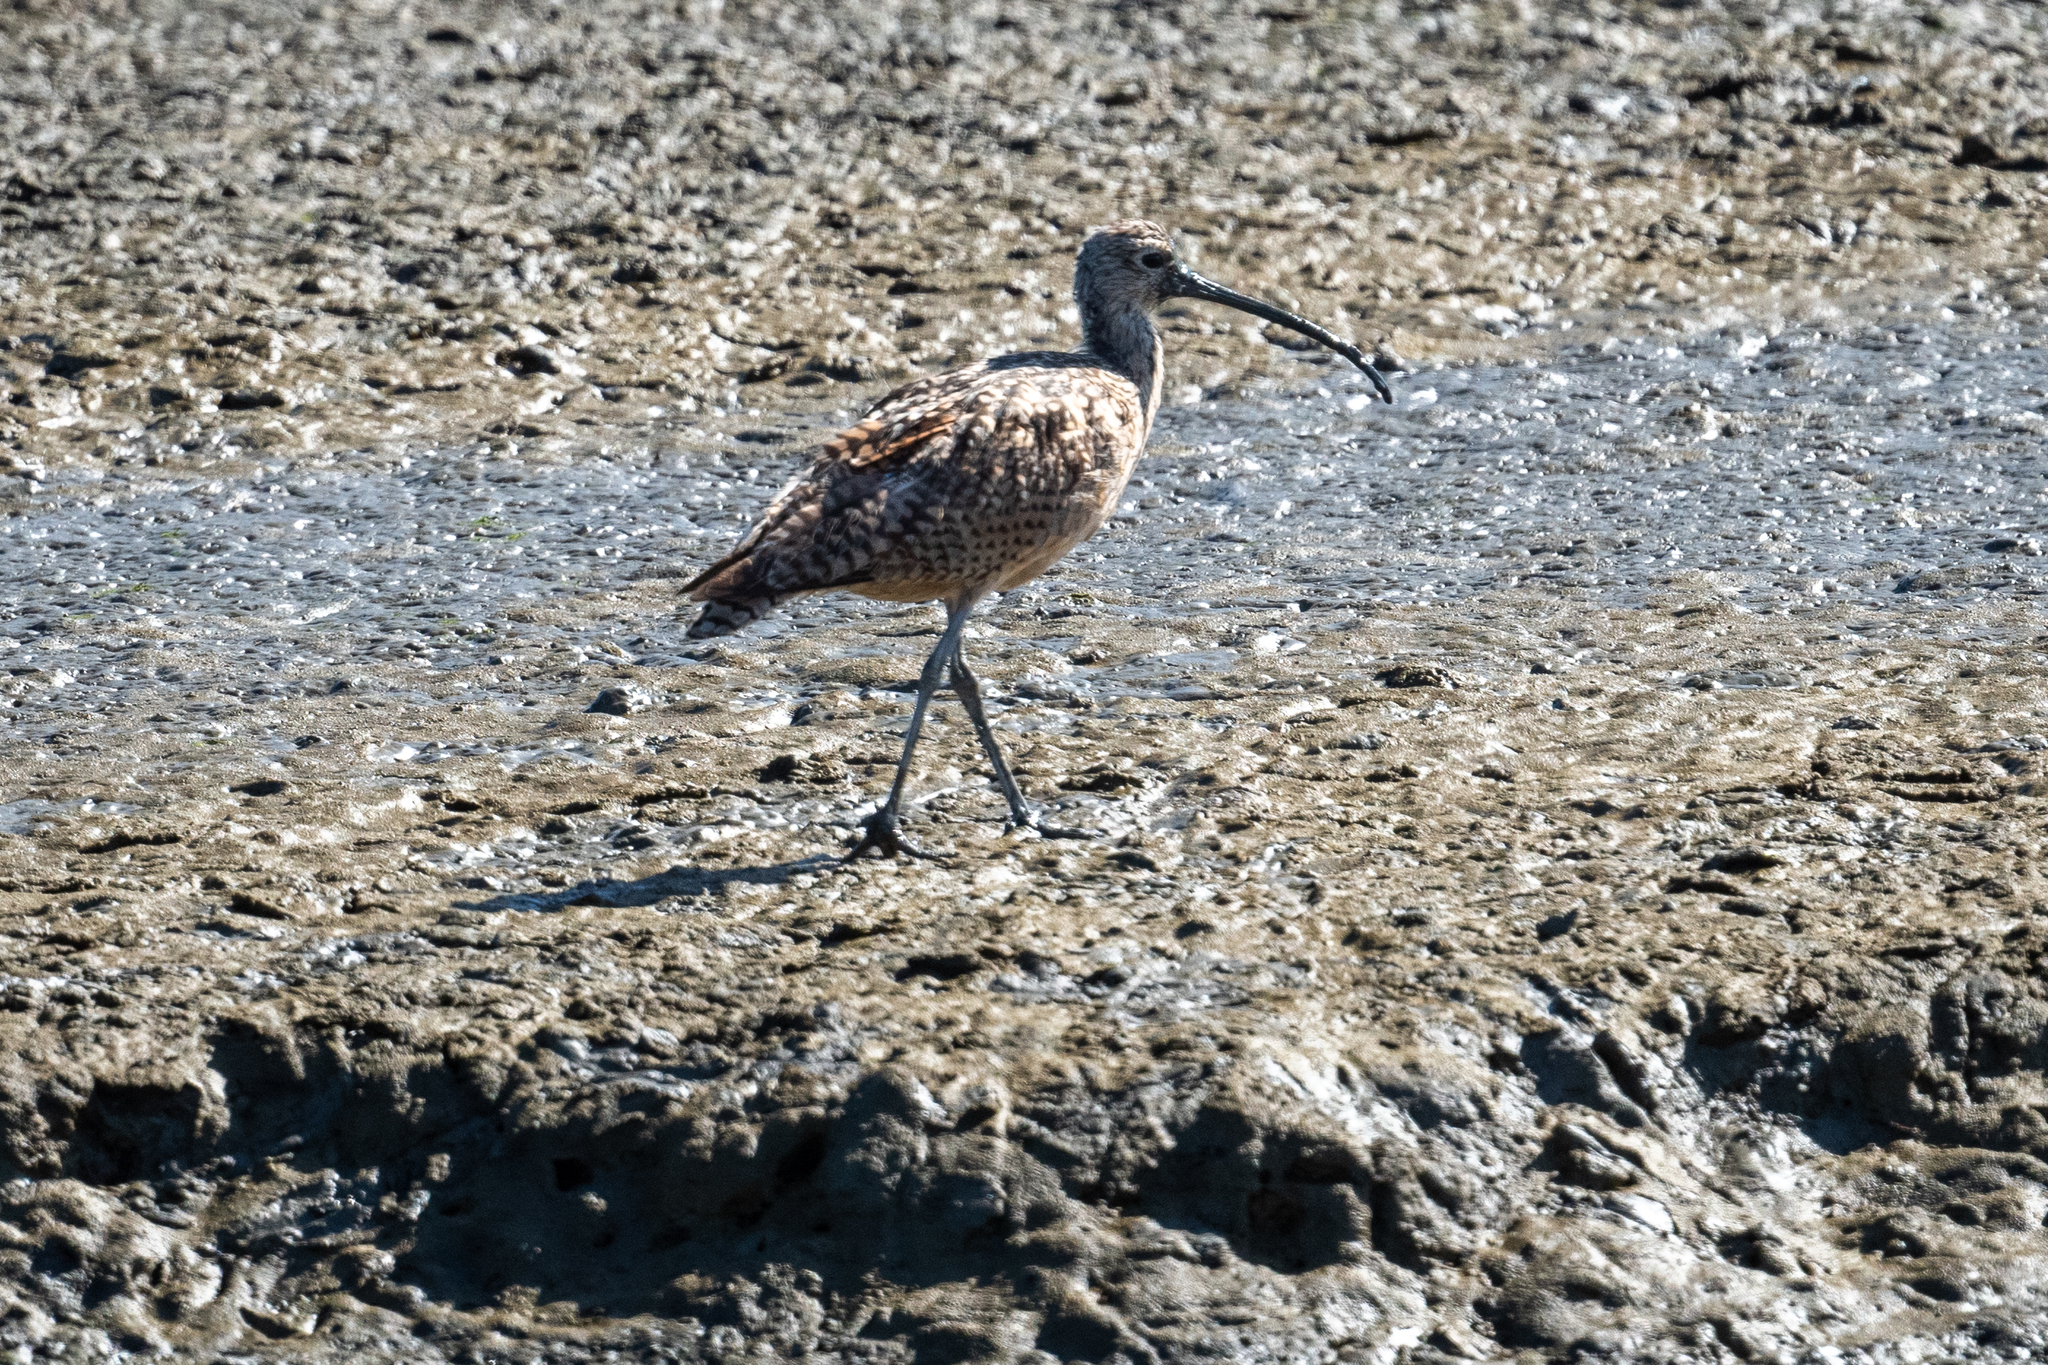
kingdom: Animalia
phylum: Chordata
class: Aves
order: Charadriiformes
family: Scolopacidae
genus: Numenius
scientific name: Numenius americanus
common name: Long-billed curlew
